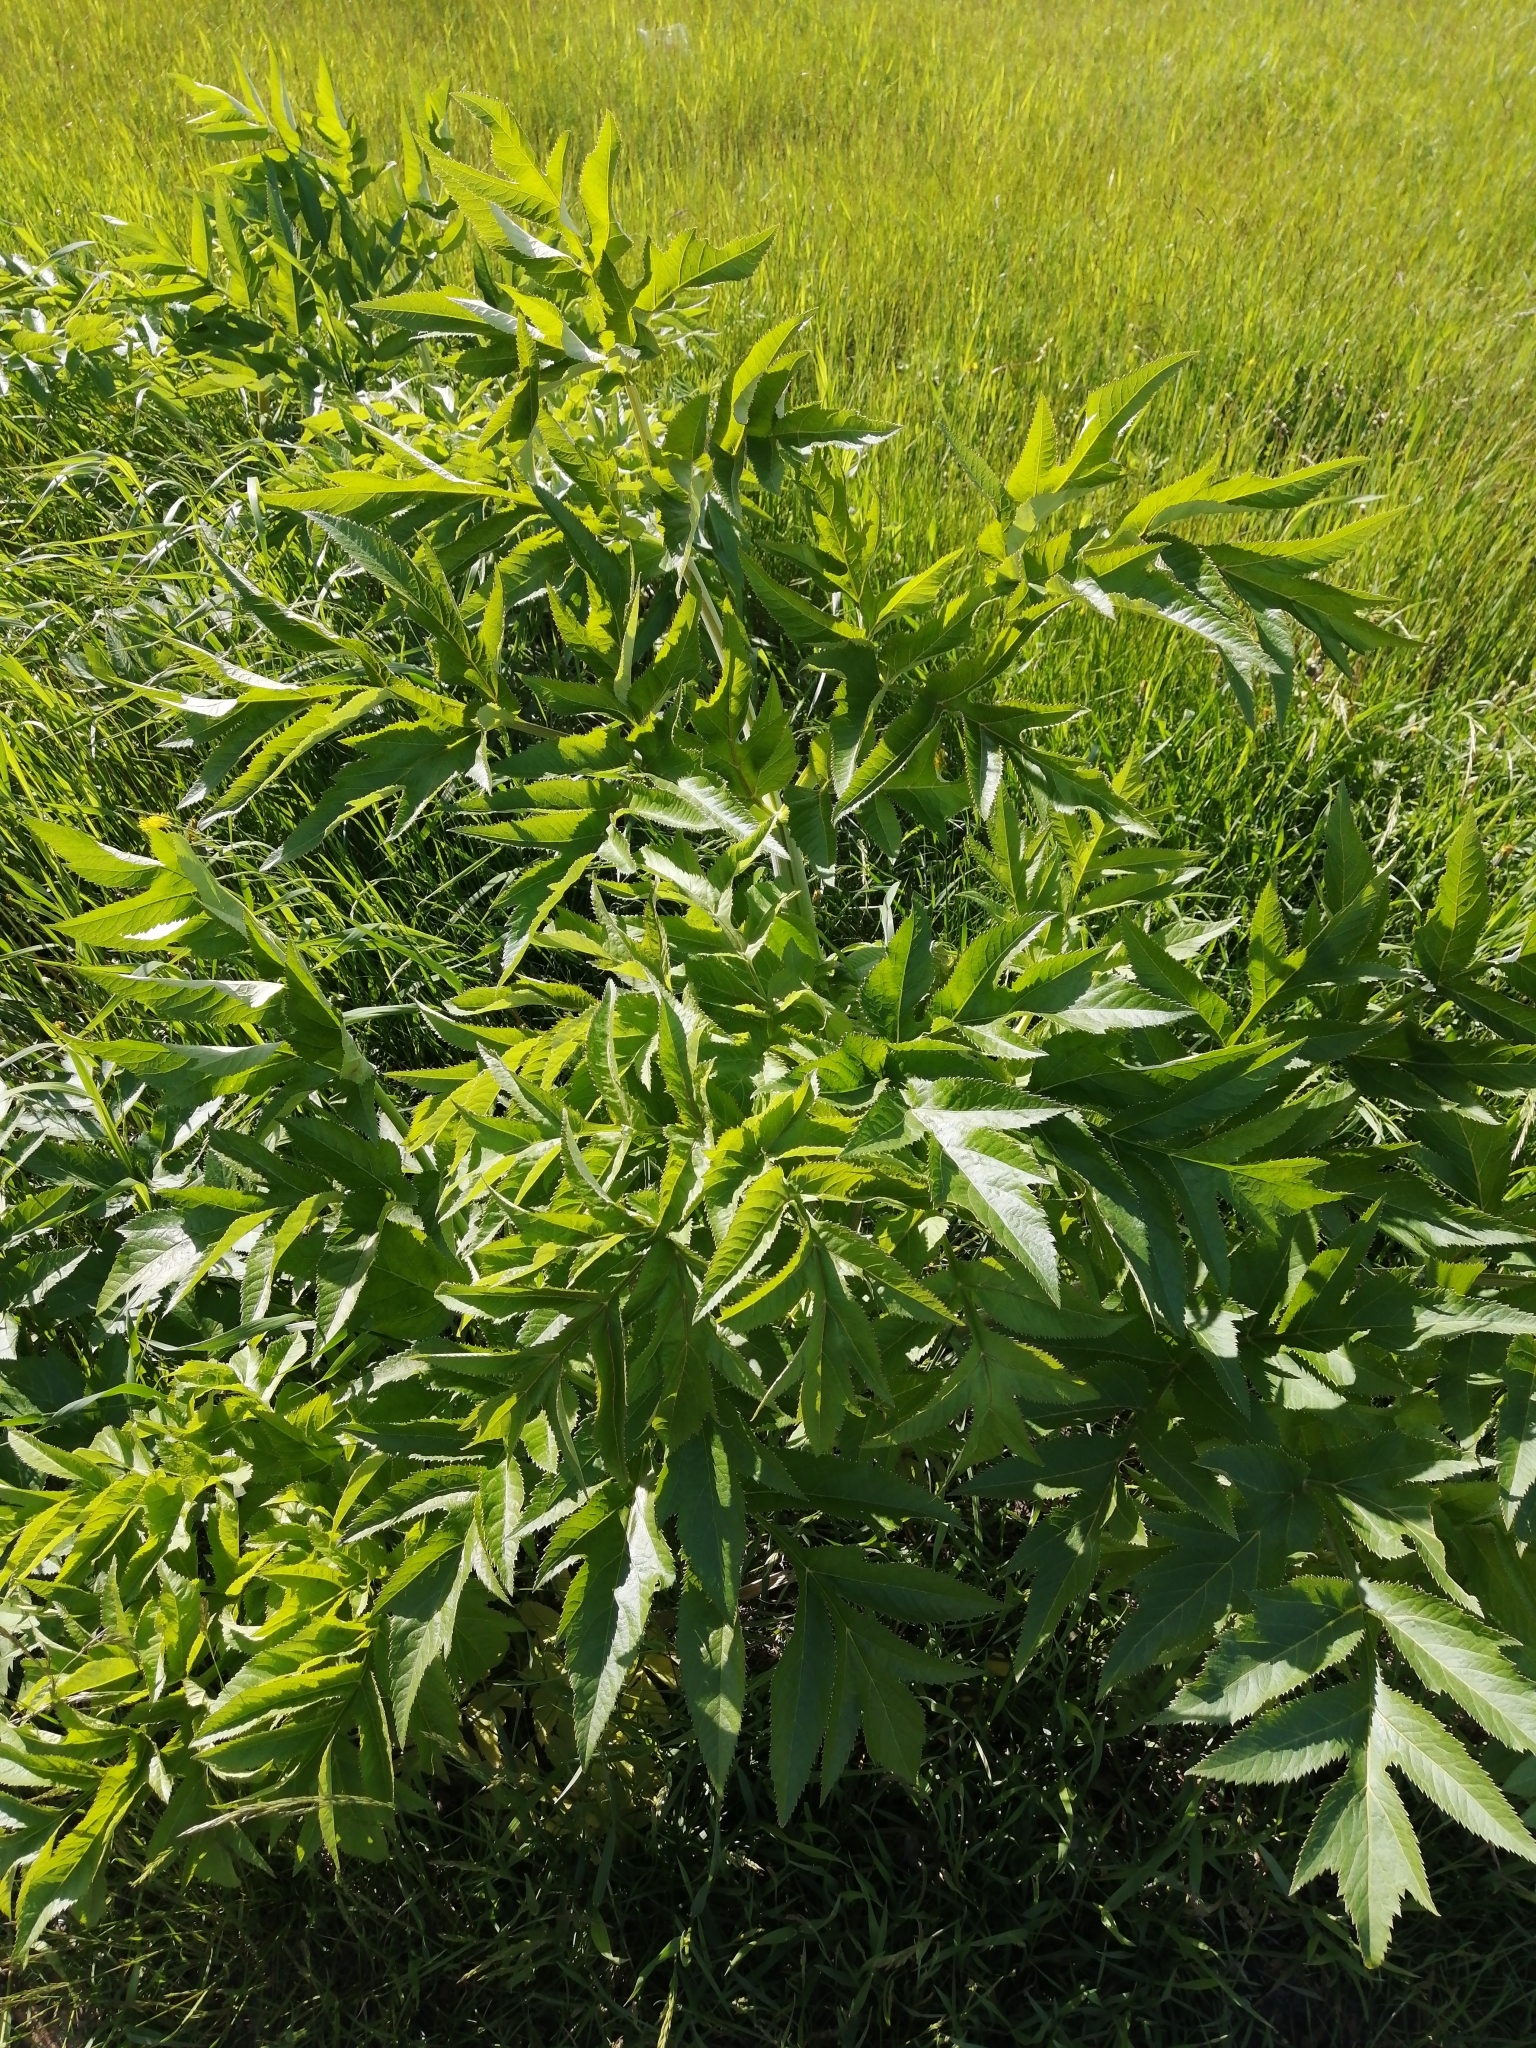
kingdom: Plantae
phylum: Tracheophyta
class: Magnoliopsida
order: Apiales
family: Apiaceae
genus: Angelica
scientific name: Angelica decurrens
